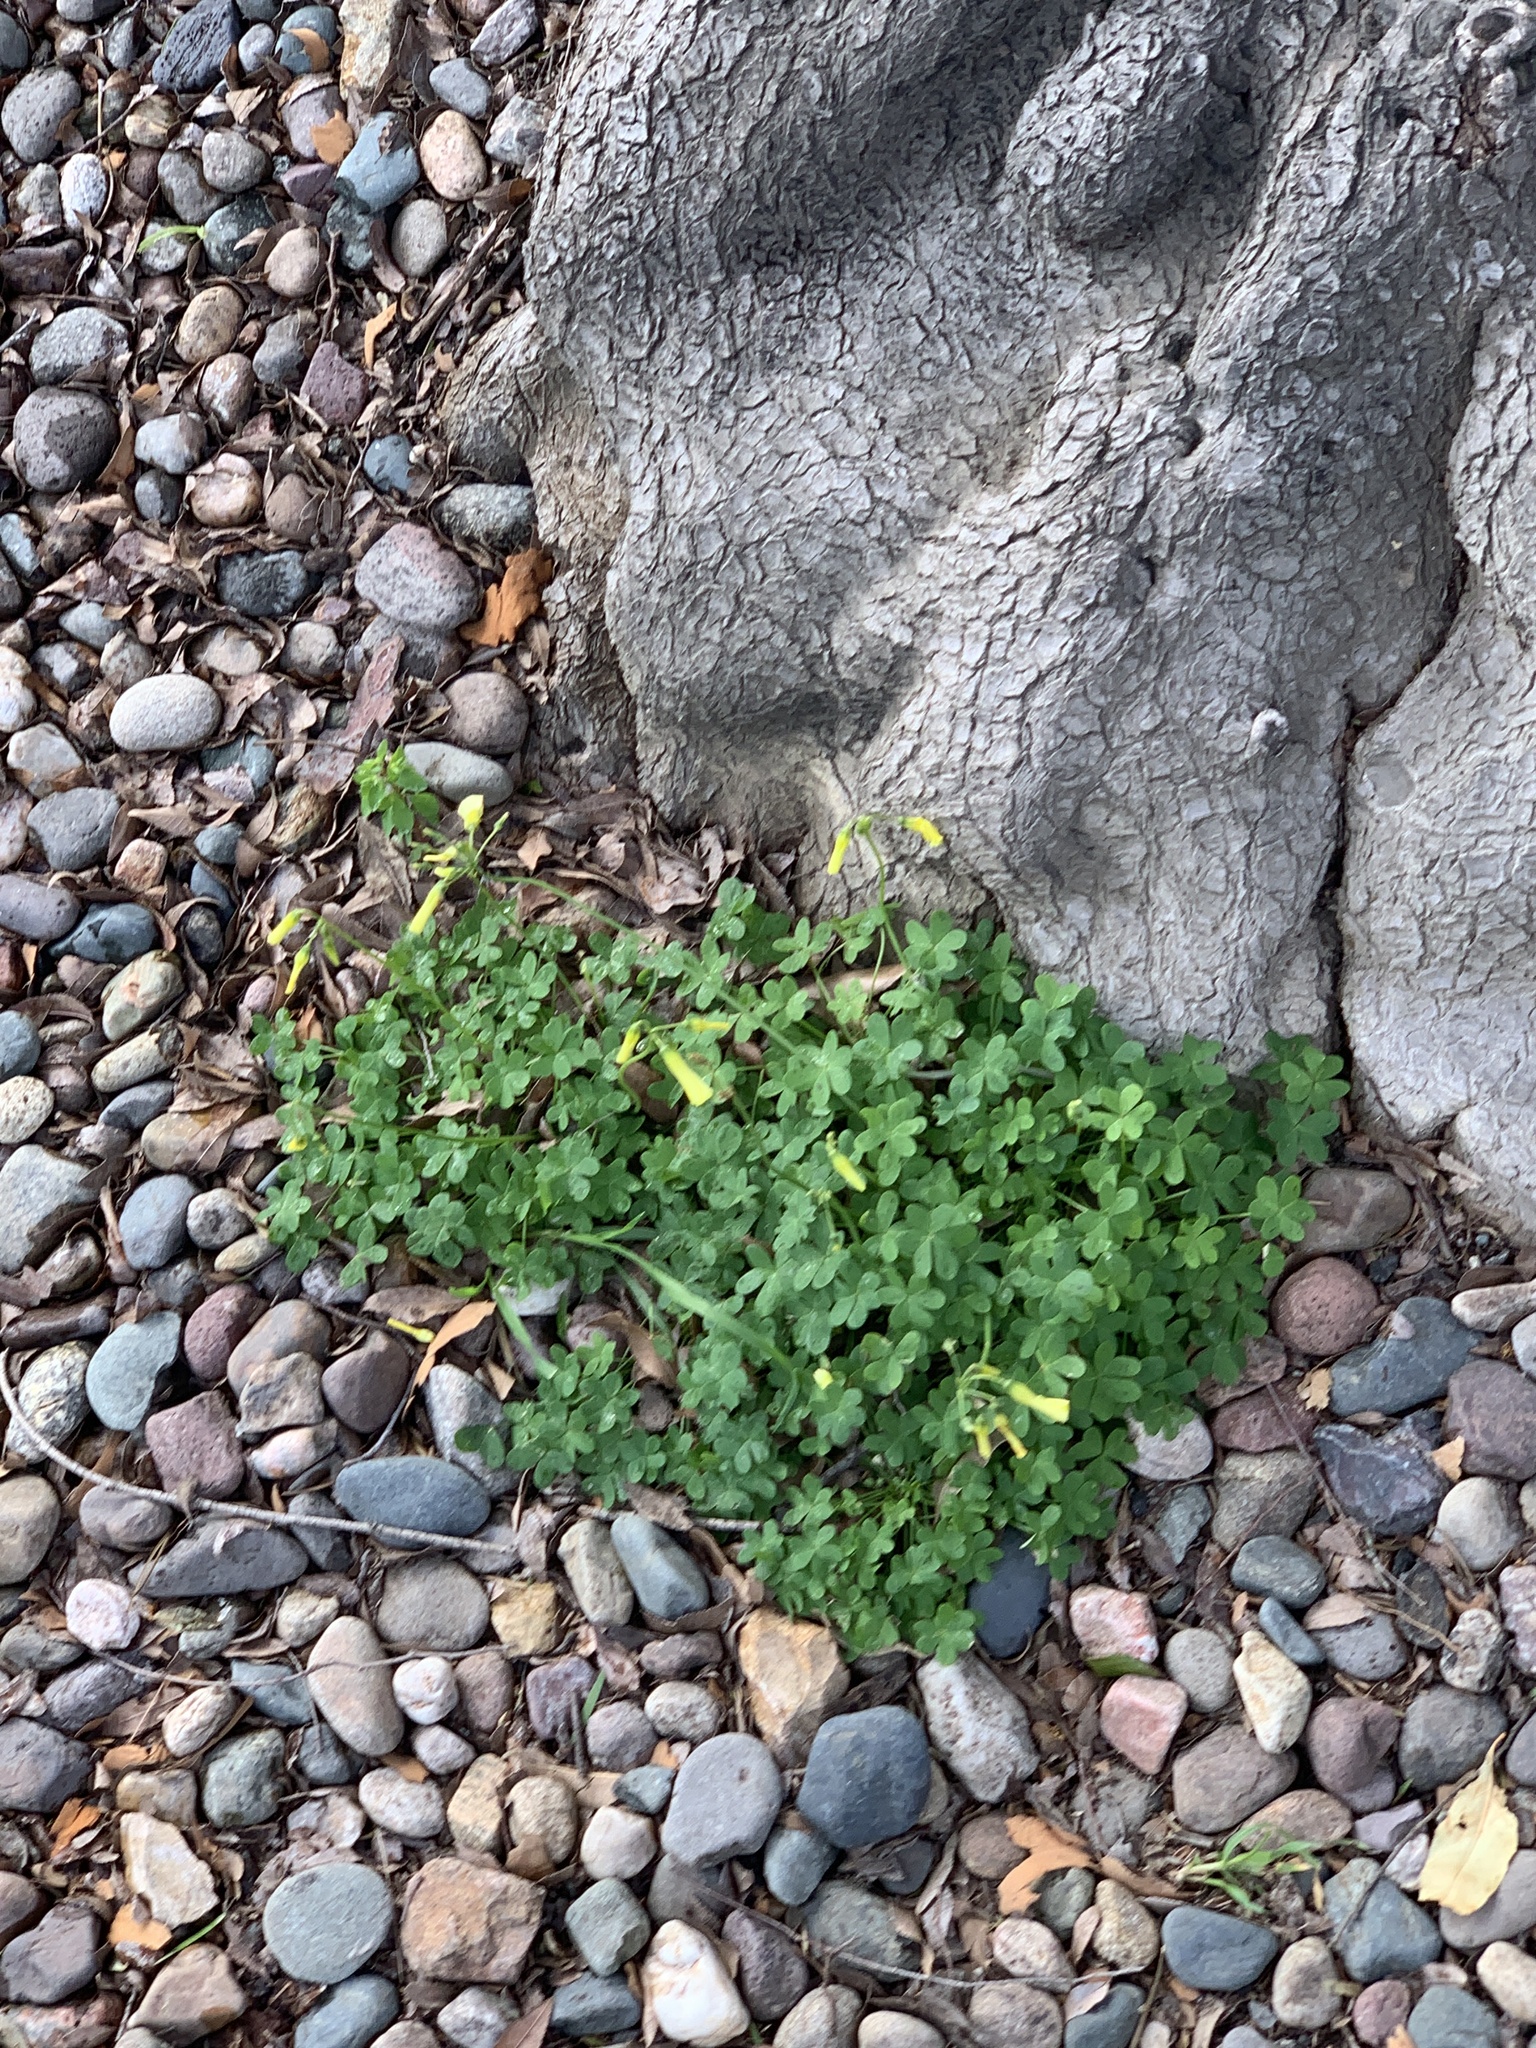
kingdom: Plantae
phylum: Tracheophyta
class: Magnoliopsida
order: Oxalidales
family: Oxalidaceae
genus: Oxalis
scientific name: Oxalis pes-caprae
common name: Bermuda-buttercup
